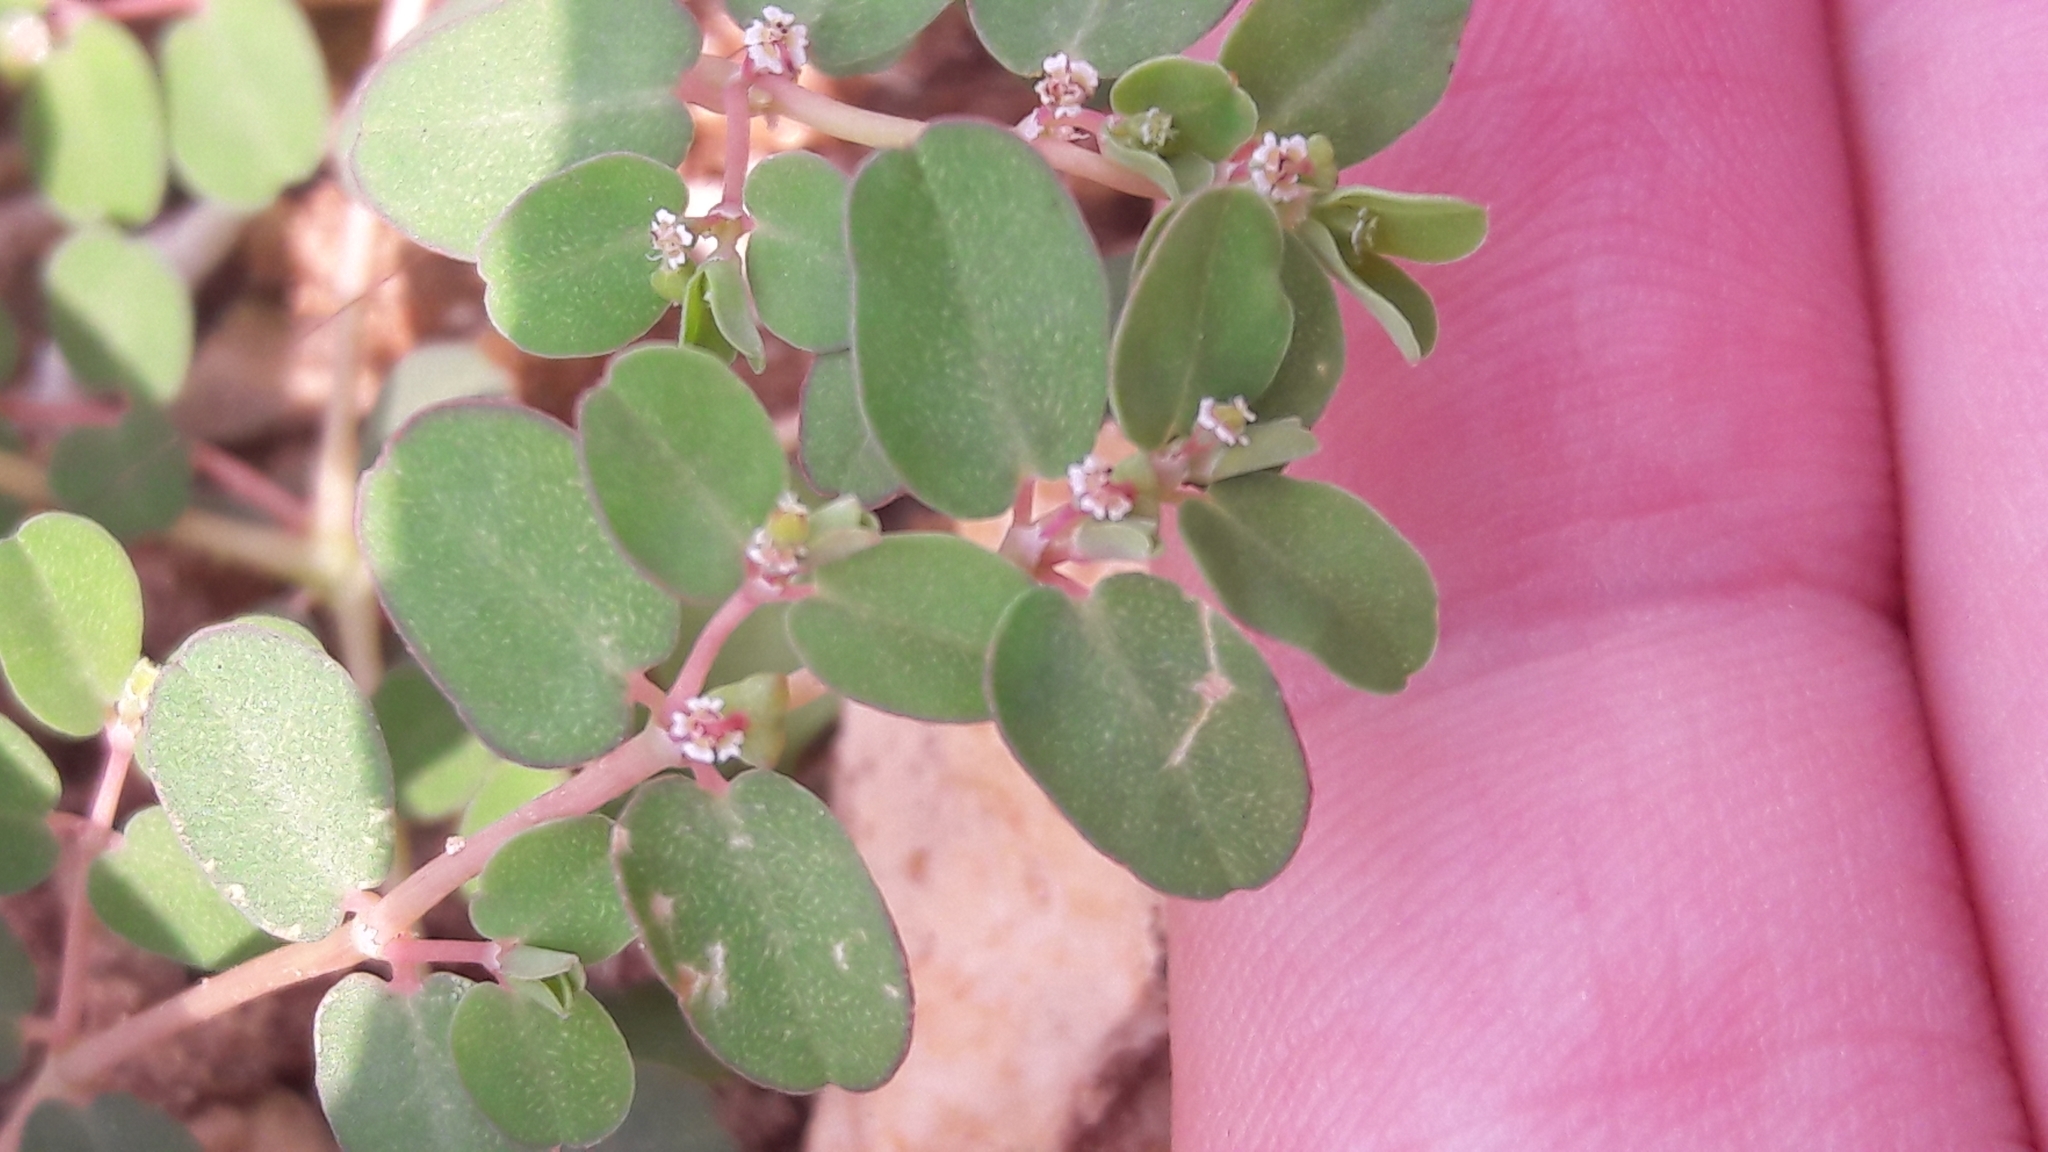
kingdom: Plantae
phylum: Tracheophyta
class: Magnoliopsida
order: Malpighiales
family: Euphorbiaceae
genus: Euphorbia
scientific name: Euphorbia serpens
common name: Matted sandmat
